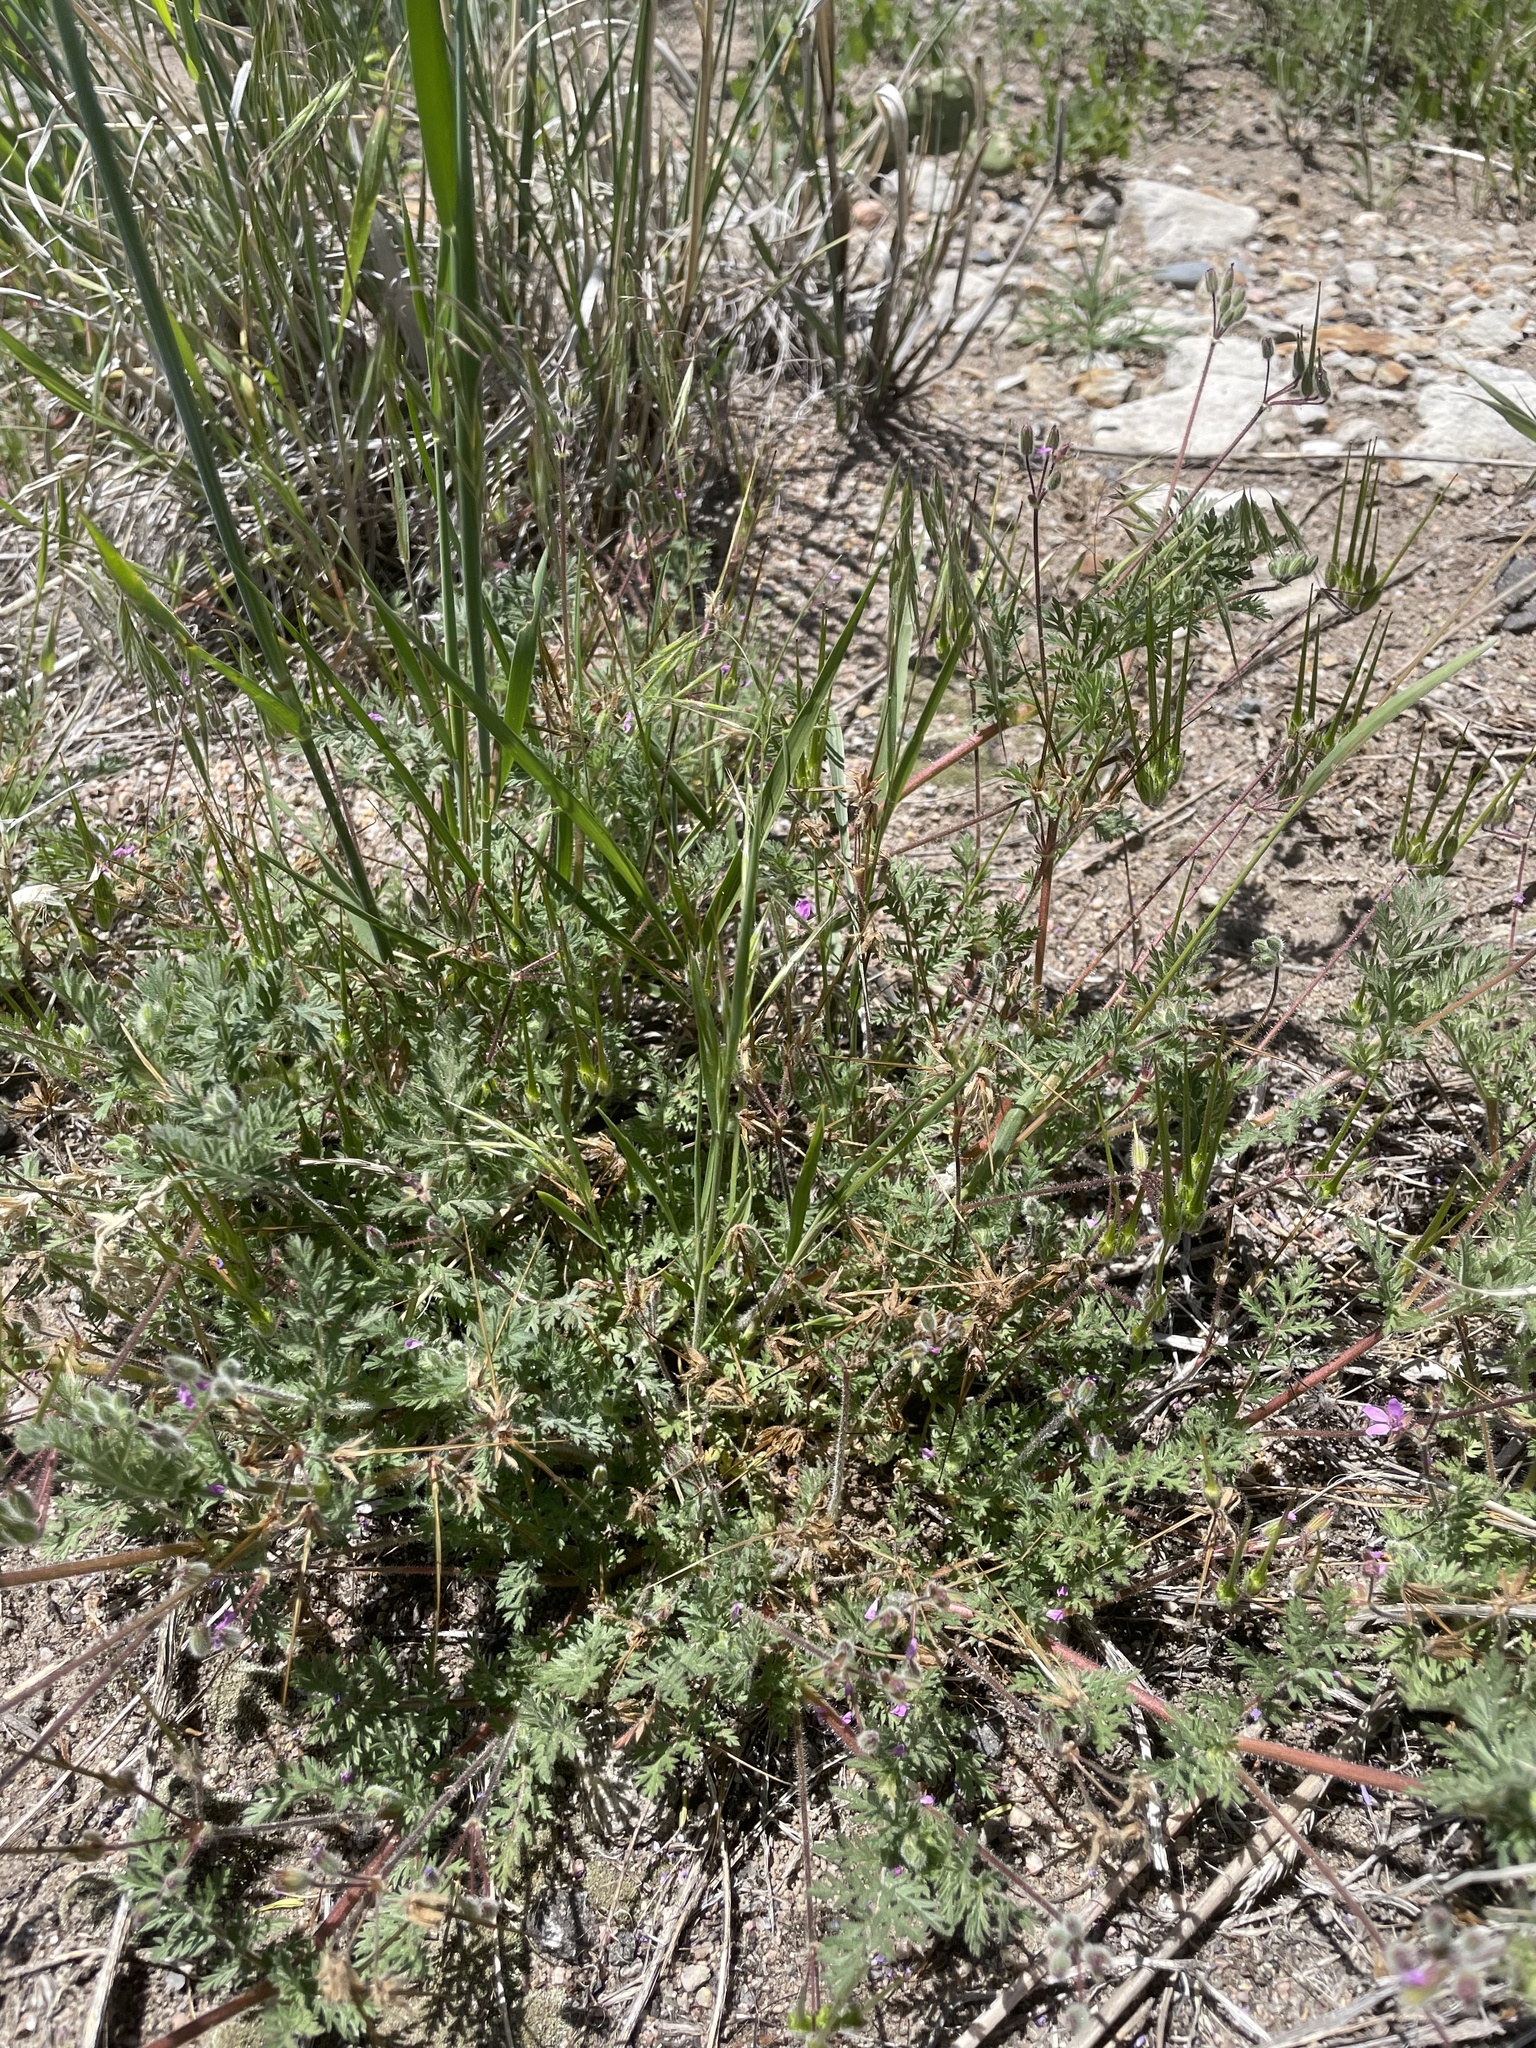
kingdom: Plantae
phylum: Tracheophyta
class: Magnoliopsida
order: Geraniales
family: Geraniaceae
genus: Erodium
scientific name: Erodium cicutarium
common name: Common stork's-bill
